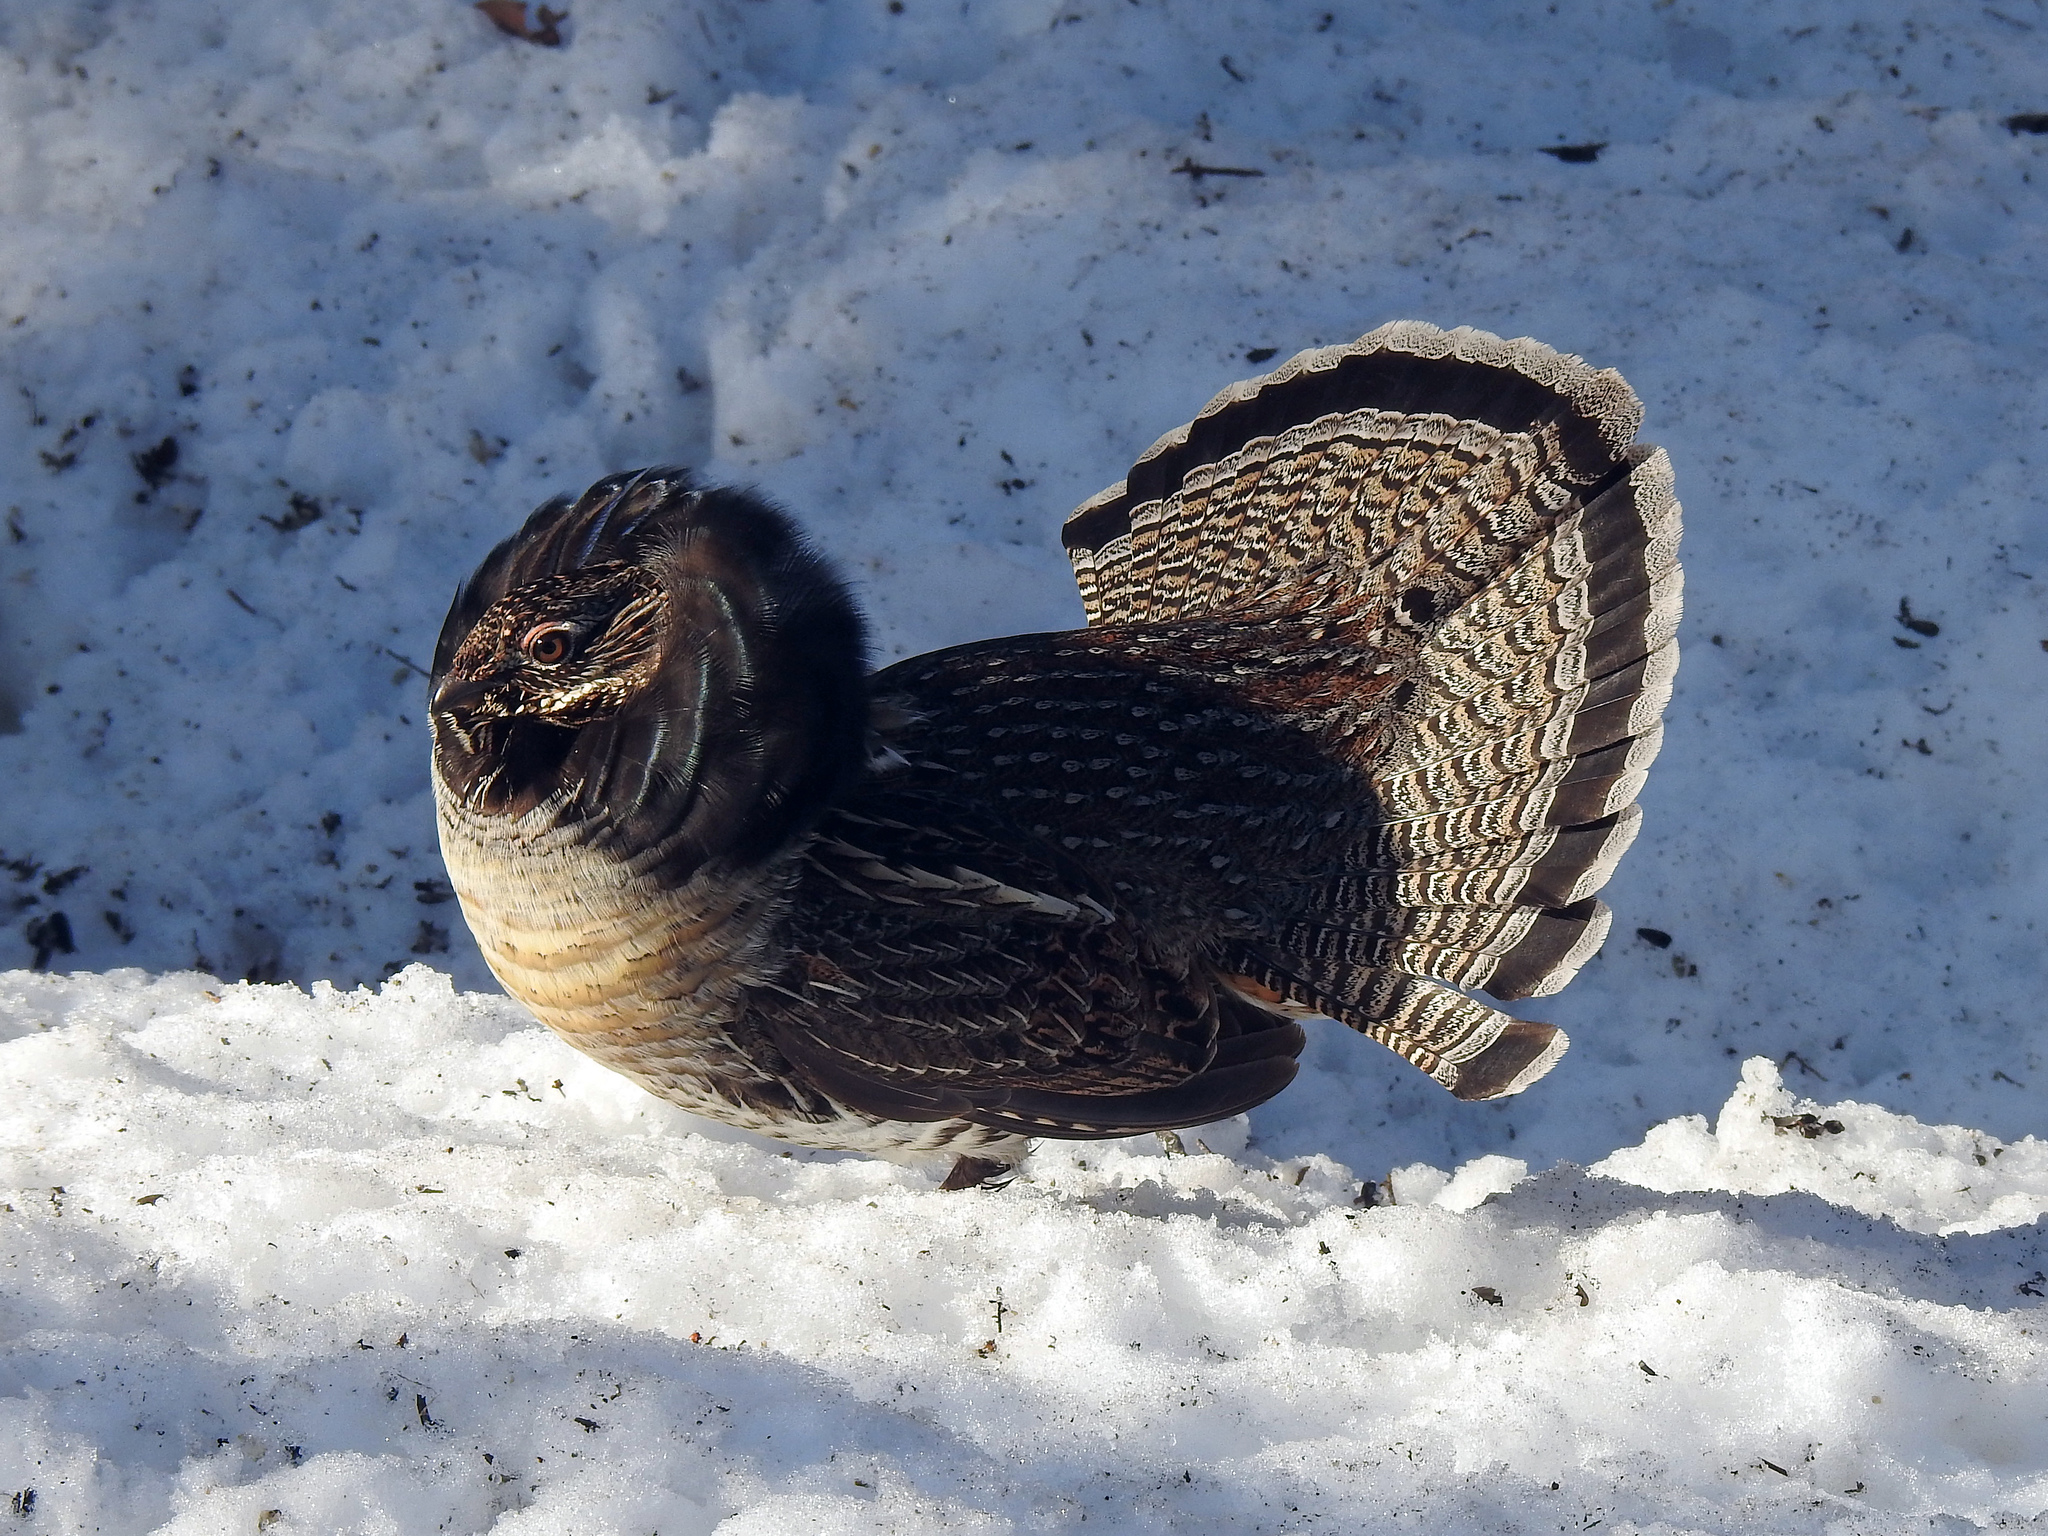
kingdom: Animalia
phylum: Chordata
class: Aves
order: Galliformes
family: Phasianidae
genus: Bonasa
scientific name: Bonasa umbellus
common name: Ruffed grouse
